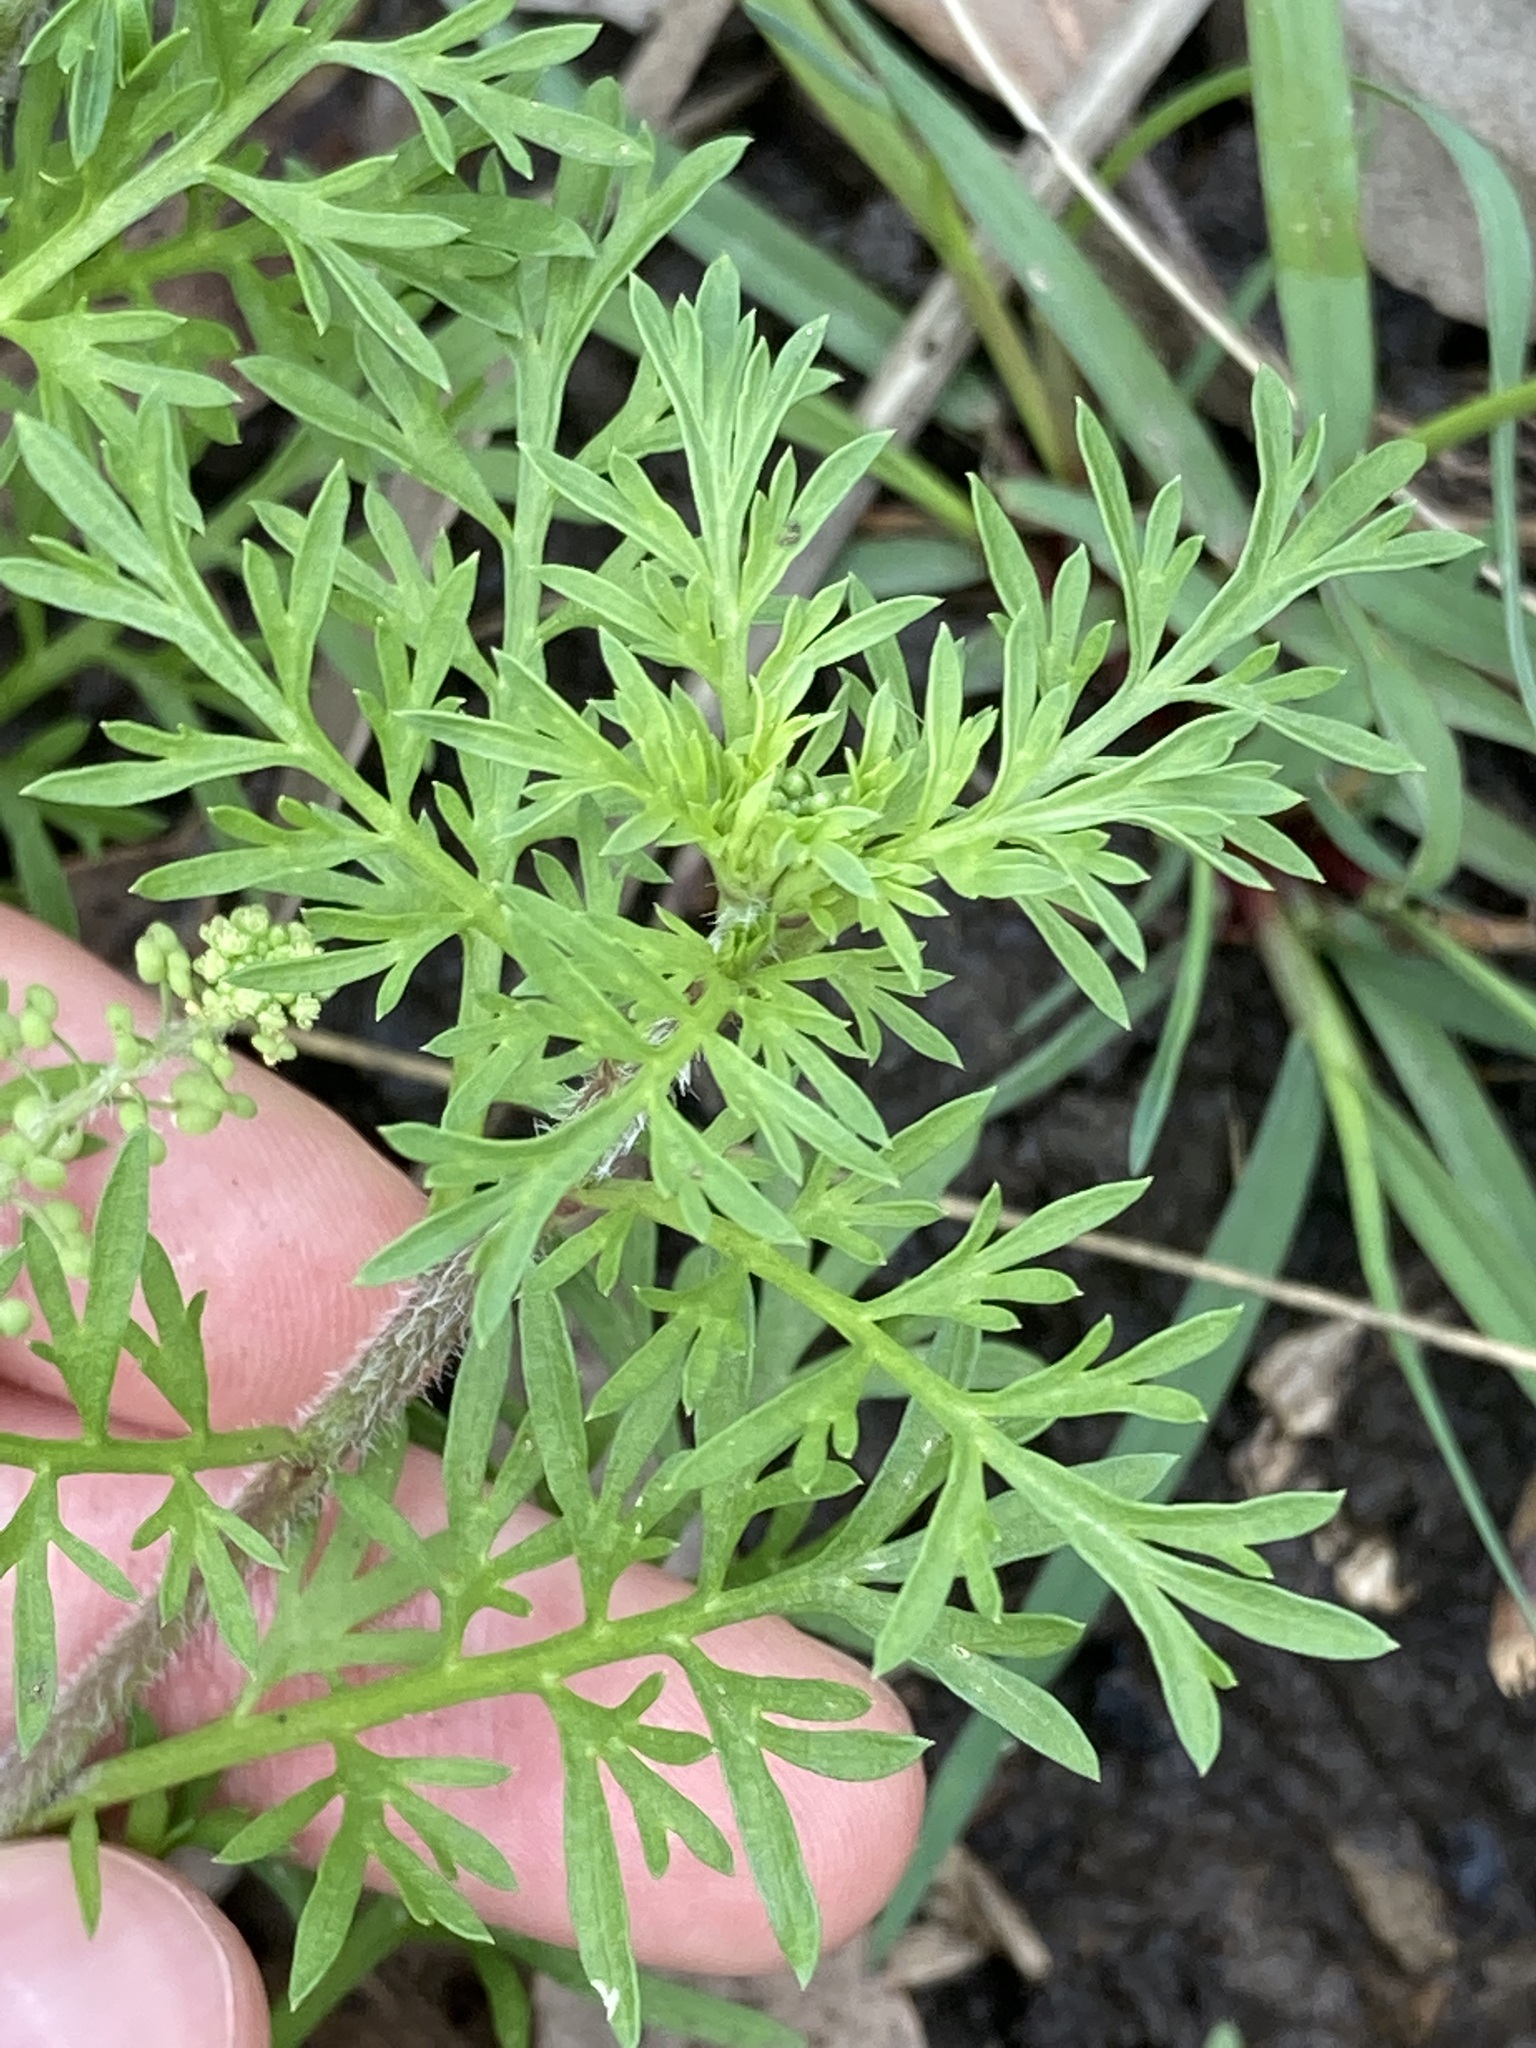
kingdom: Plantae
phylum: Tracheophyta
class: Magnoliopsida
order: Brassicales
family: Brassicaceae
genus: Lepidium
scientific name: Lepidium didymum
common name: Lesser swinecress
